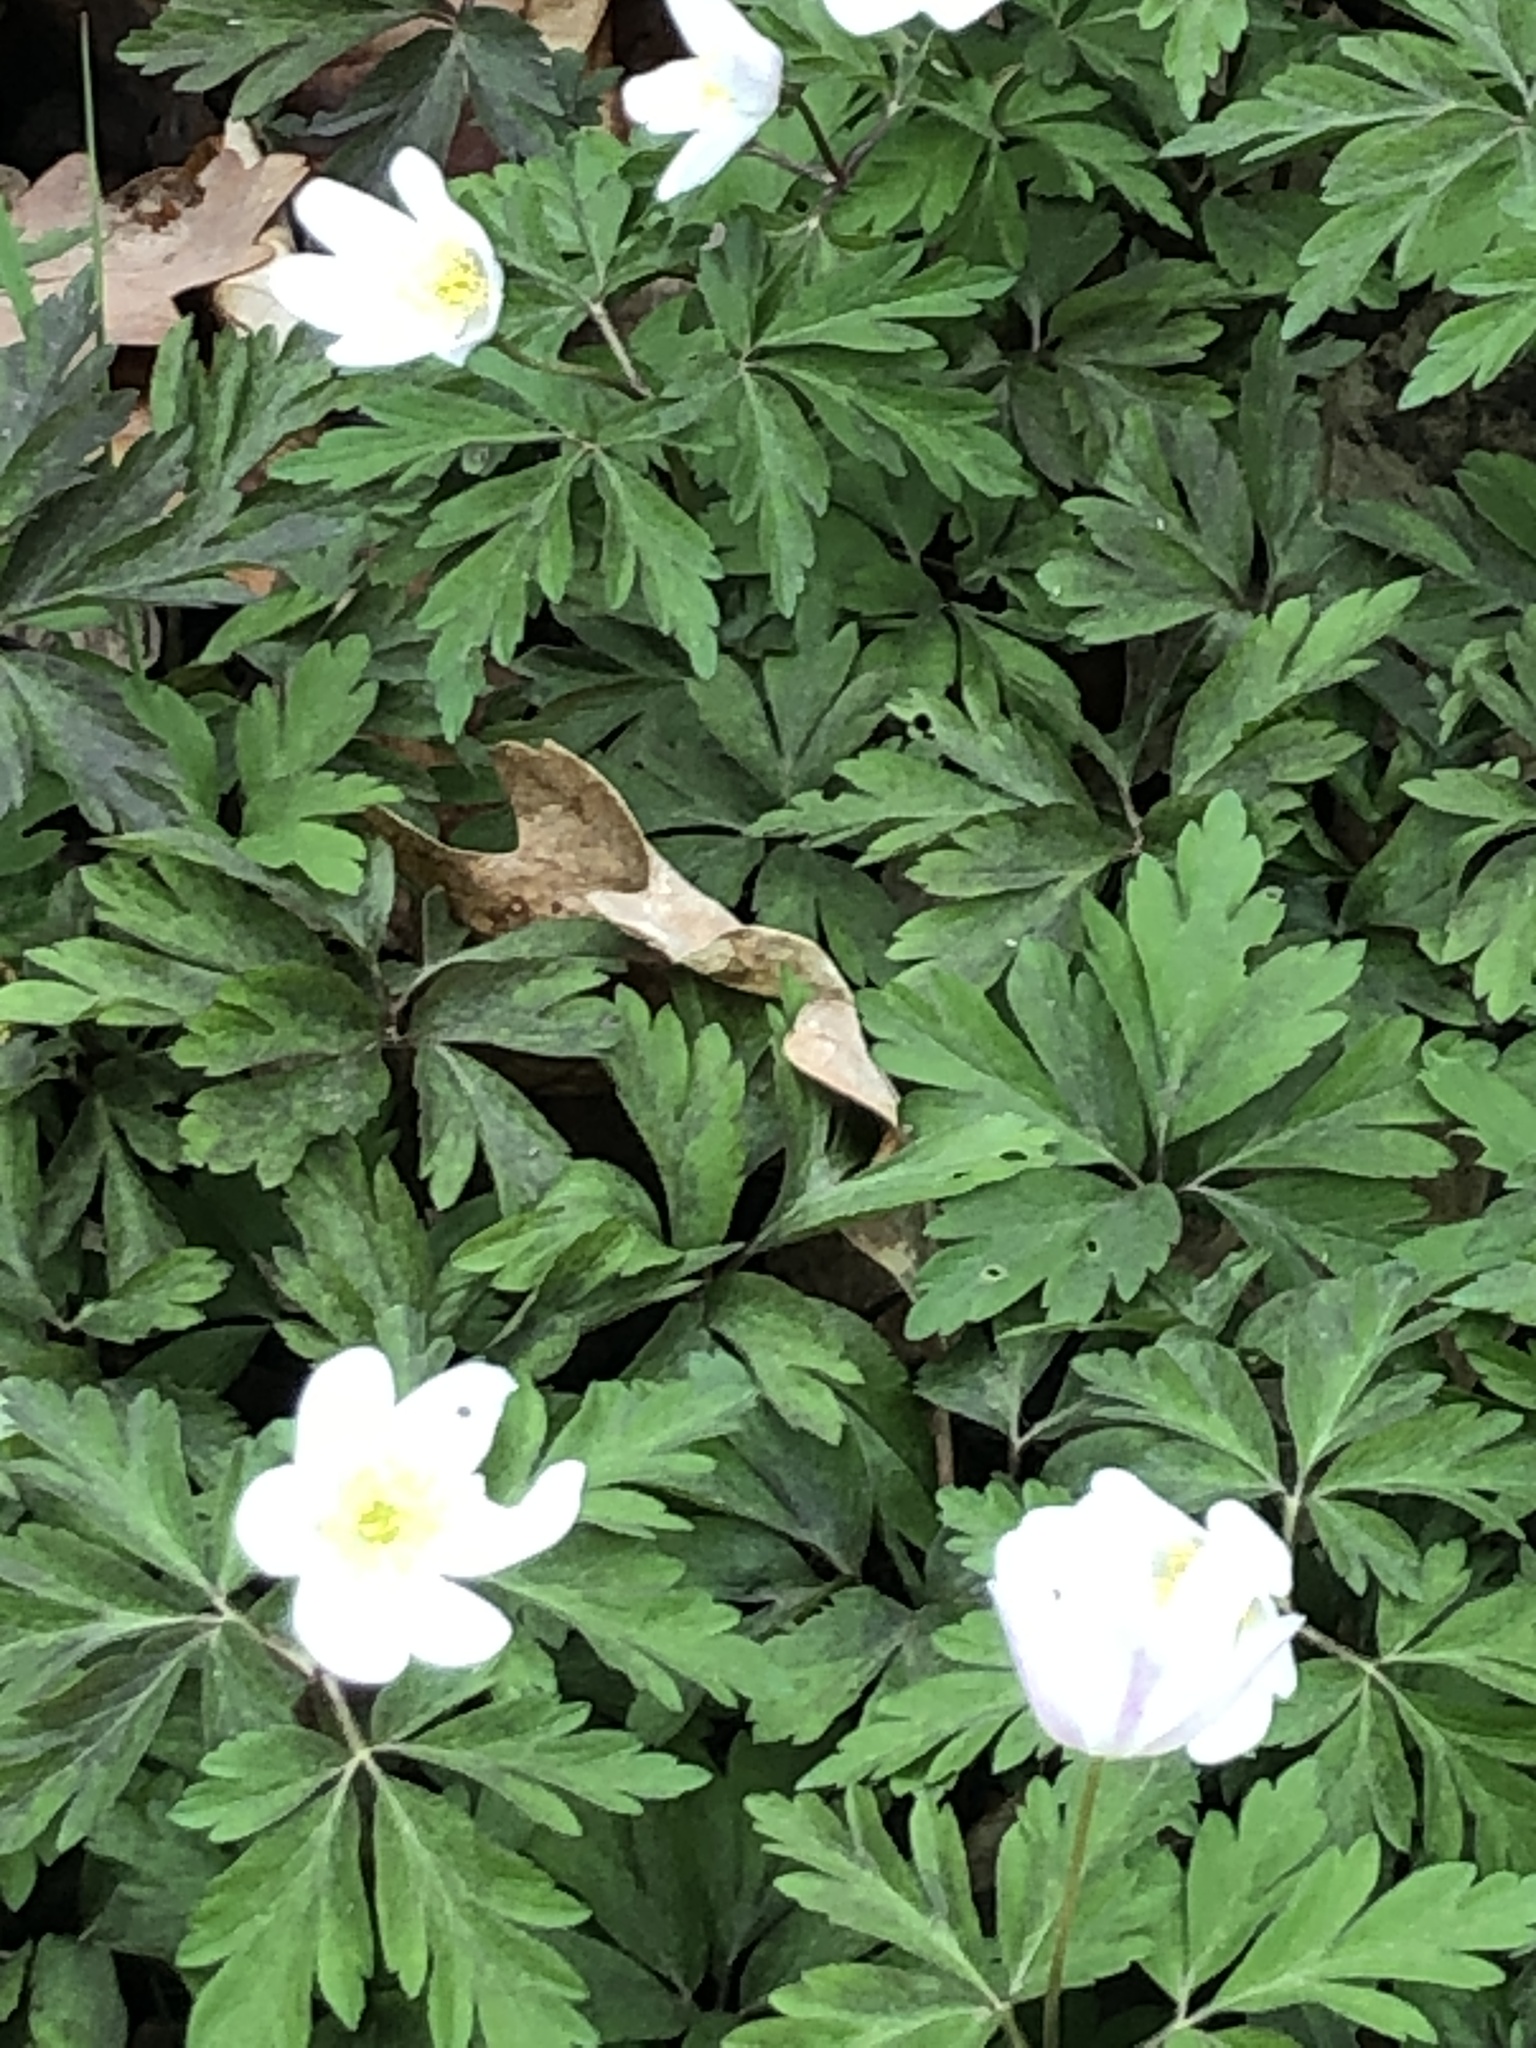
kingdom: Plantae
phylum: Tracheophyta
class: Magnoliopsida
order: Ranunculales
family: Ranunculaceae
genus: Anemone
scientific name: Anemone nemorosa
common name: Wood anemone
